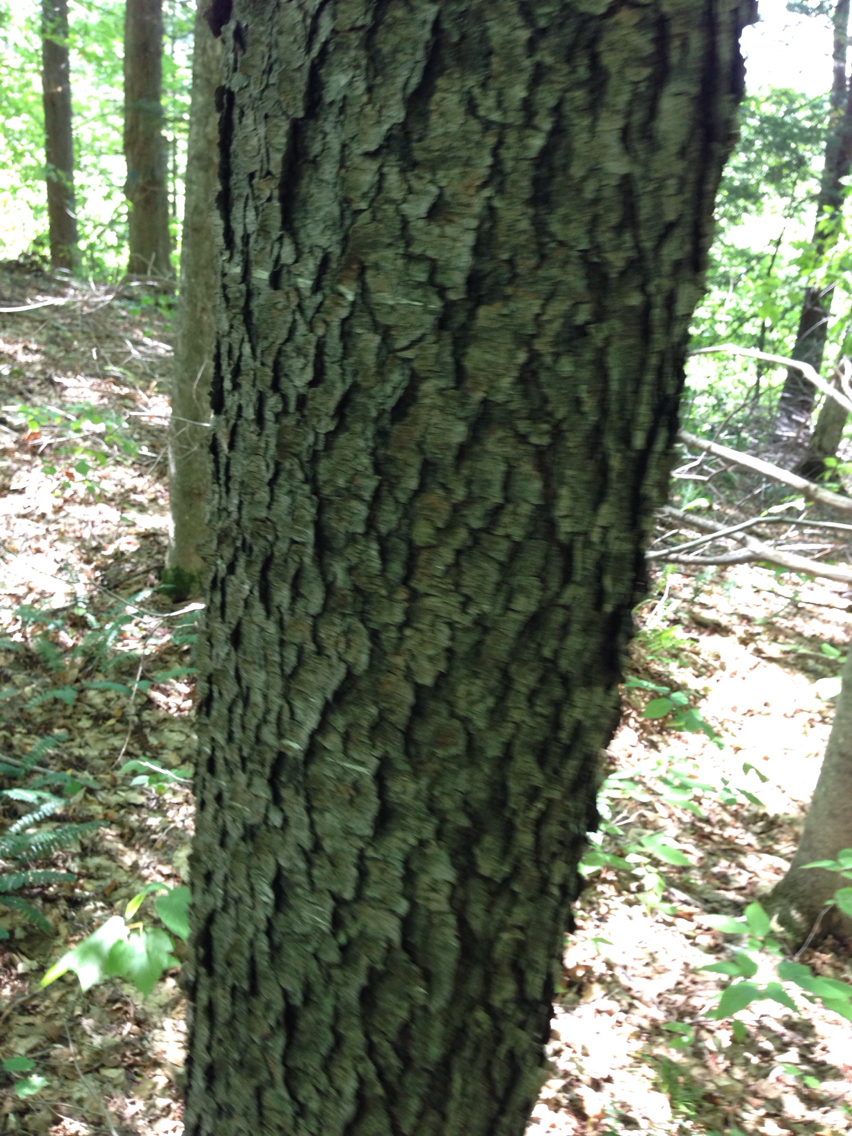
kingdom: Plantae
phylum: Tracheophyta
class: Magnoliopsida
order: Rosales
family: Rosaceae
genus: Prunus
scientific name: Prunus serotina
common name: Black cherry
